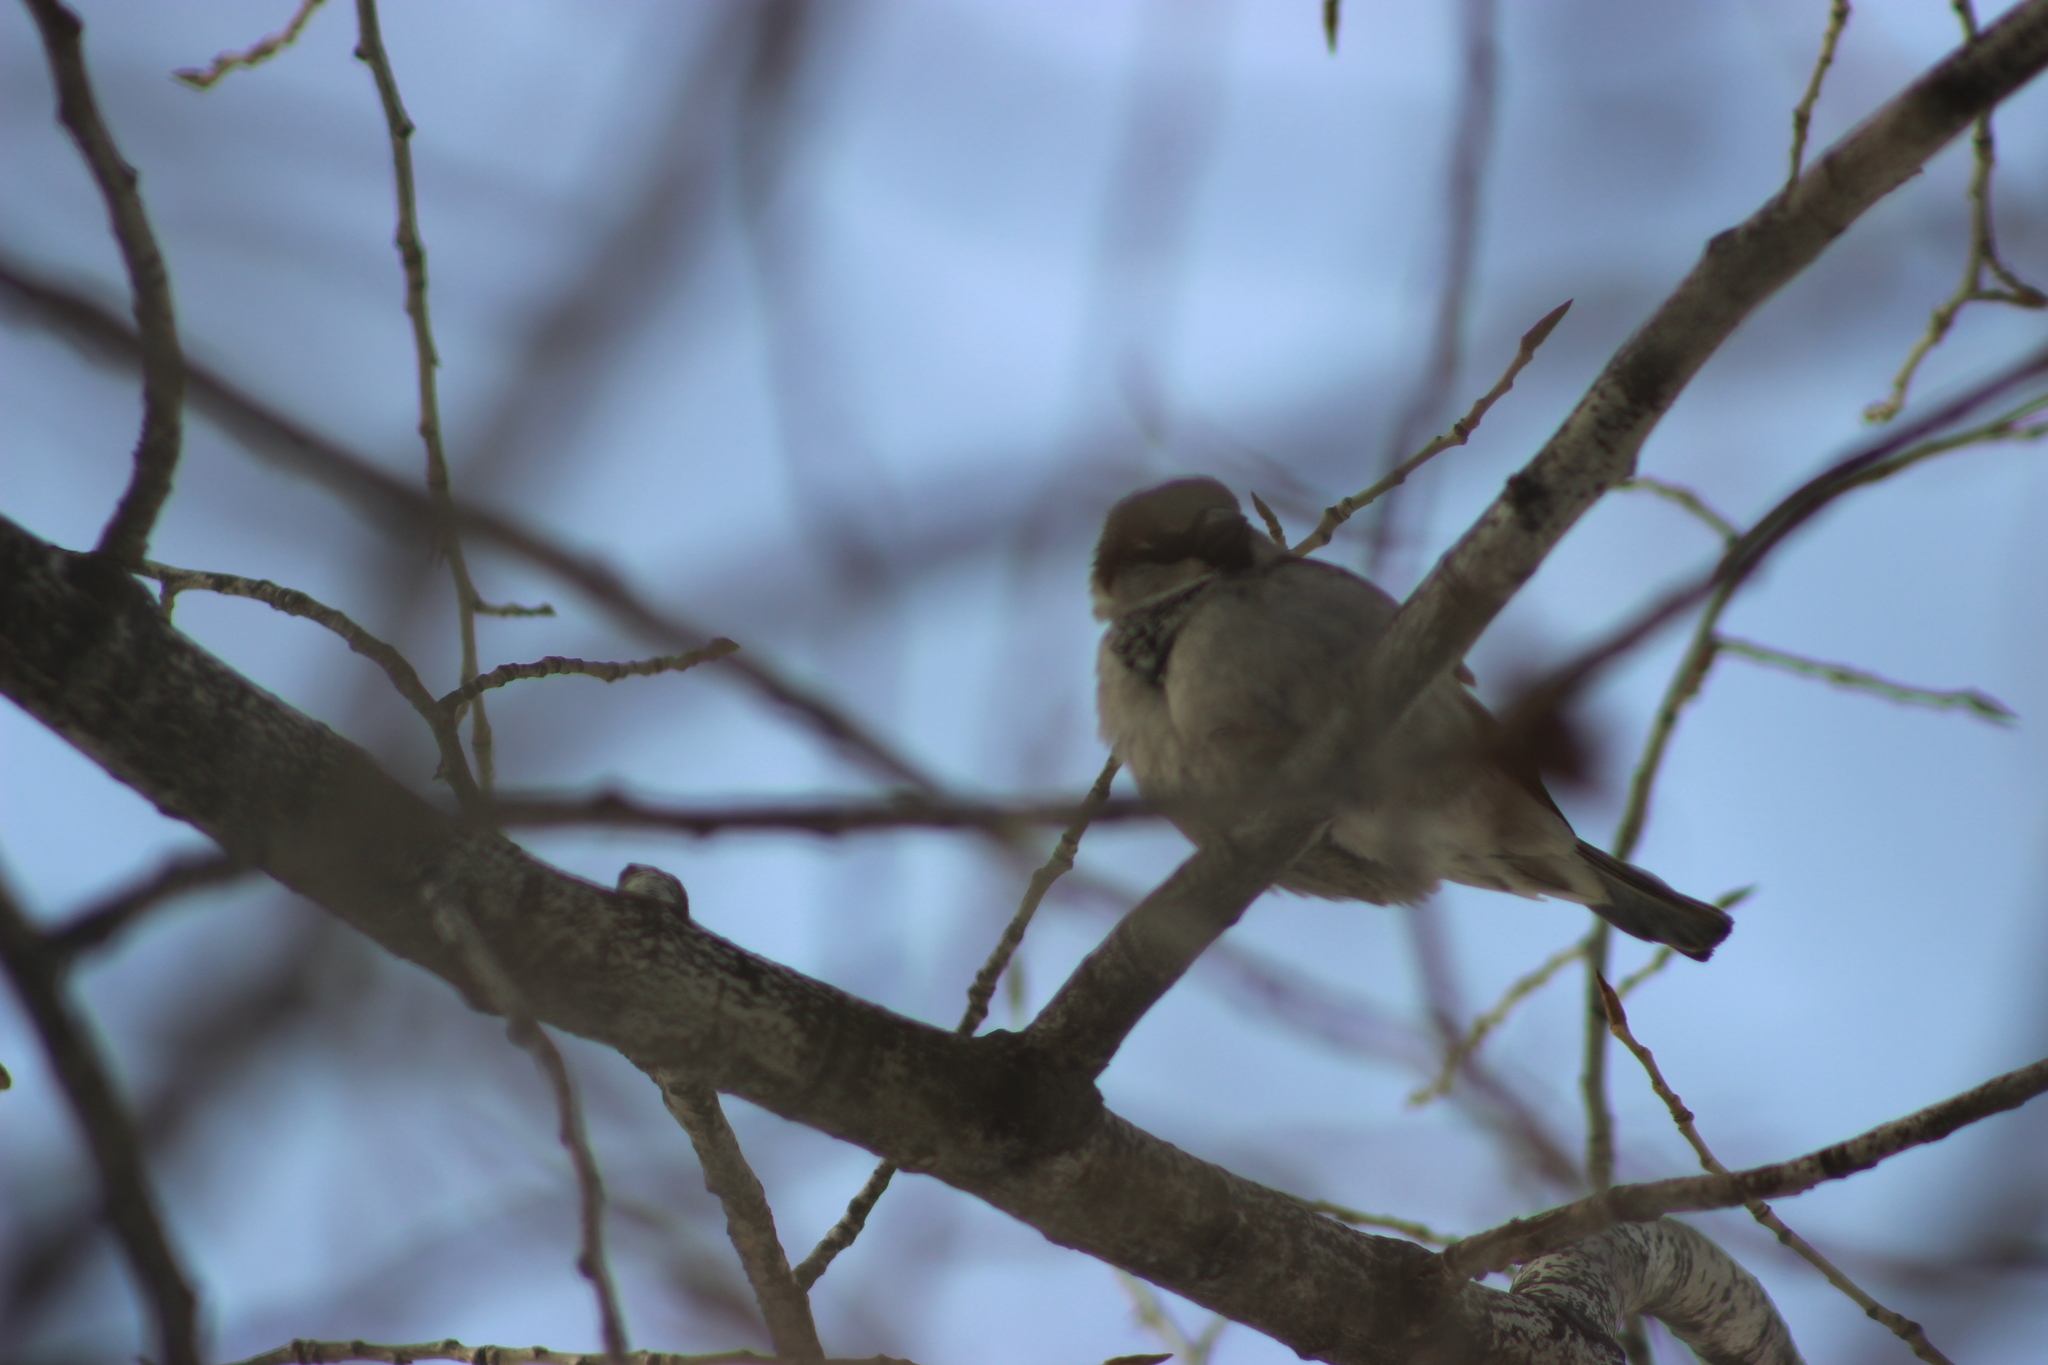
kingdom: Animalia
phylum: Chordata
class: Aves
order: Passeriformes
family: Passeridae
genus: Passer
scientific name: Passer domesticus
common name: House sparrow
